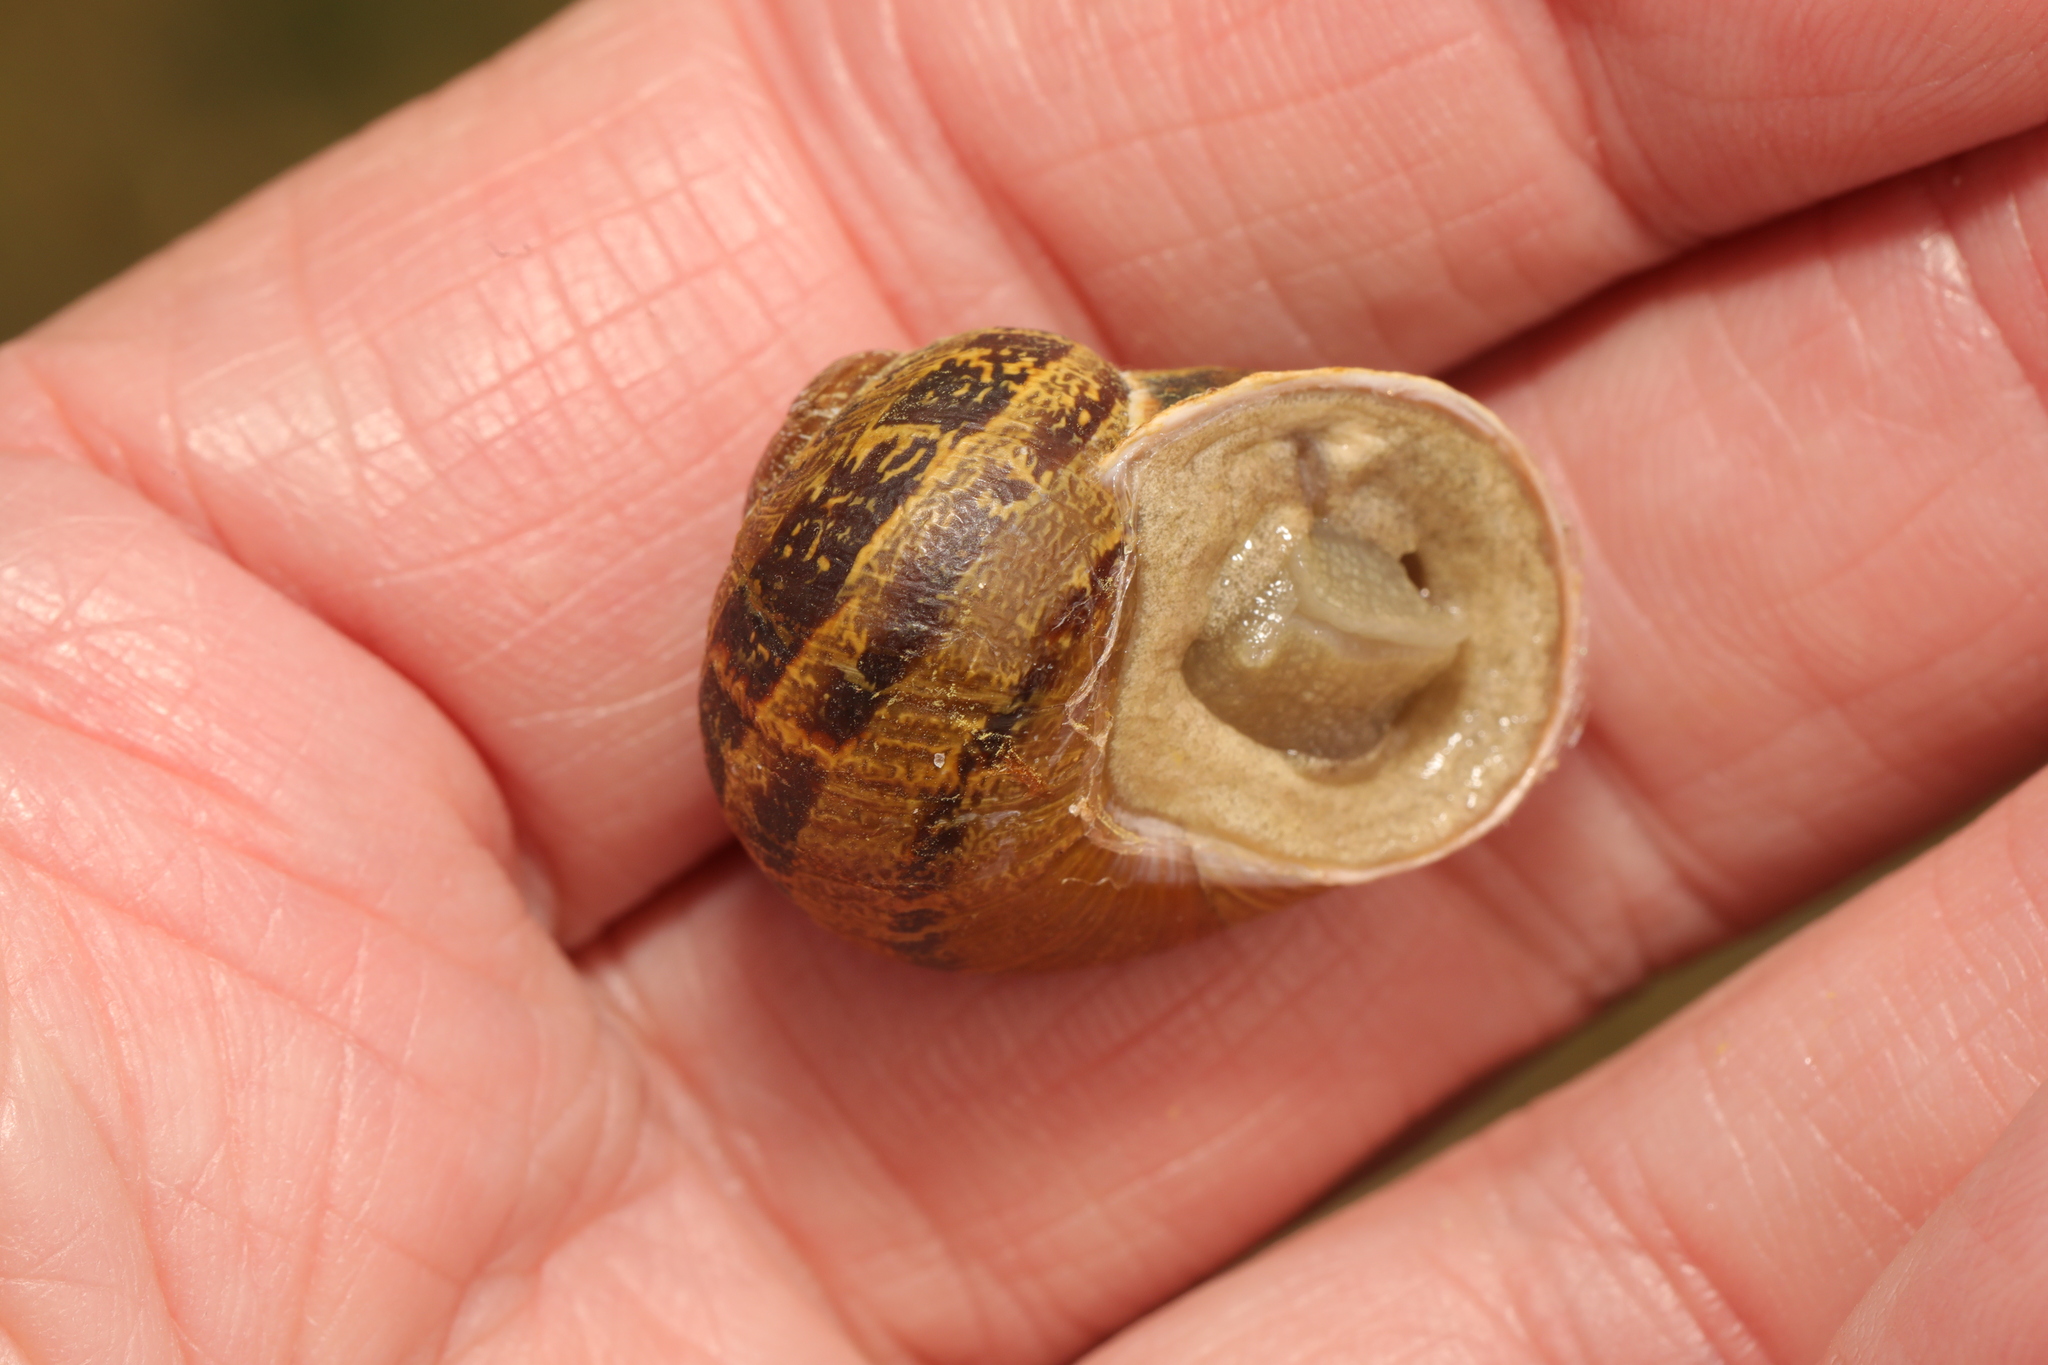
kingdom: Animalia
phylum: Mollusca
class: Gastropoda
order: Stylommatophora
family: Helicidae
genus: Cornu
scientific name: Cornu aspersum
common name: Brown garden snail
